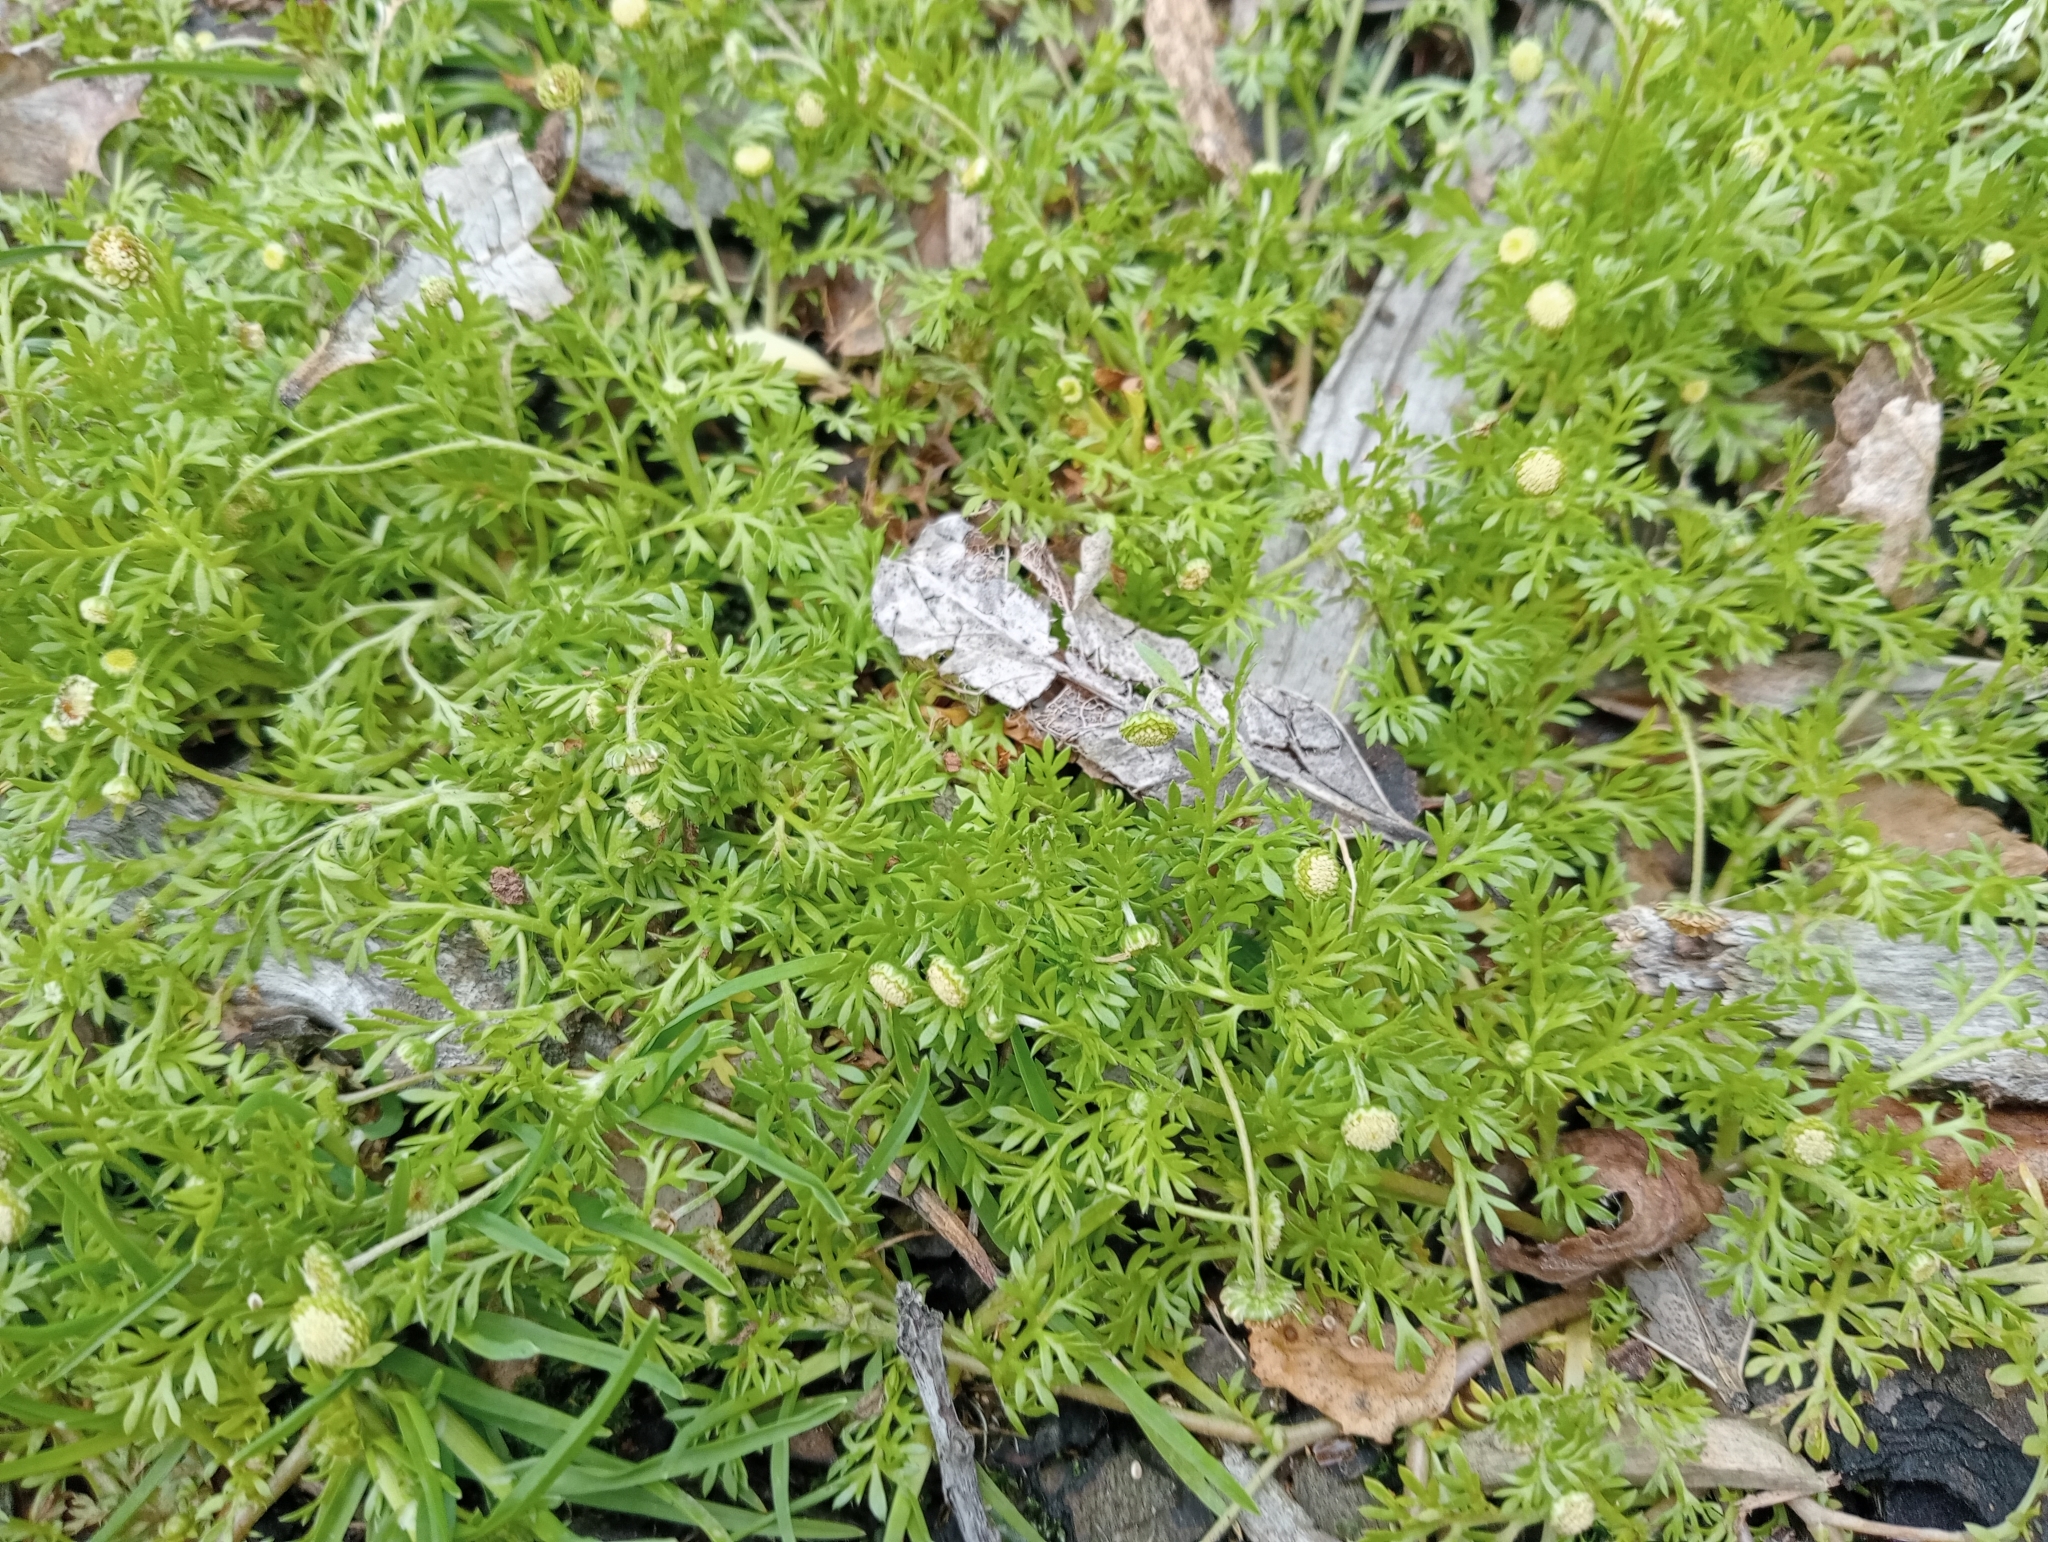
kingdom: Plantae
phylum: Tracheophyta
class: Magnoliopsida
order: Asterales
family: Asteraceae
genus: Cotula
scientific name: Cotula australis
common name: Australian waterbuttons
